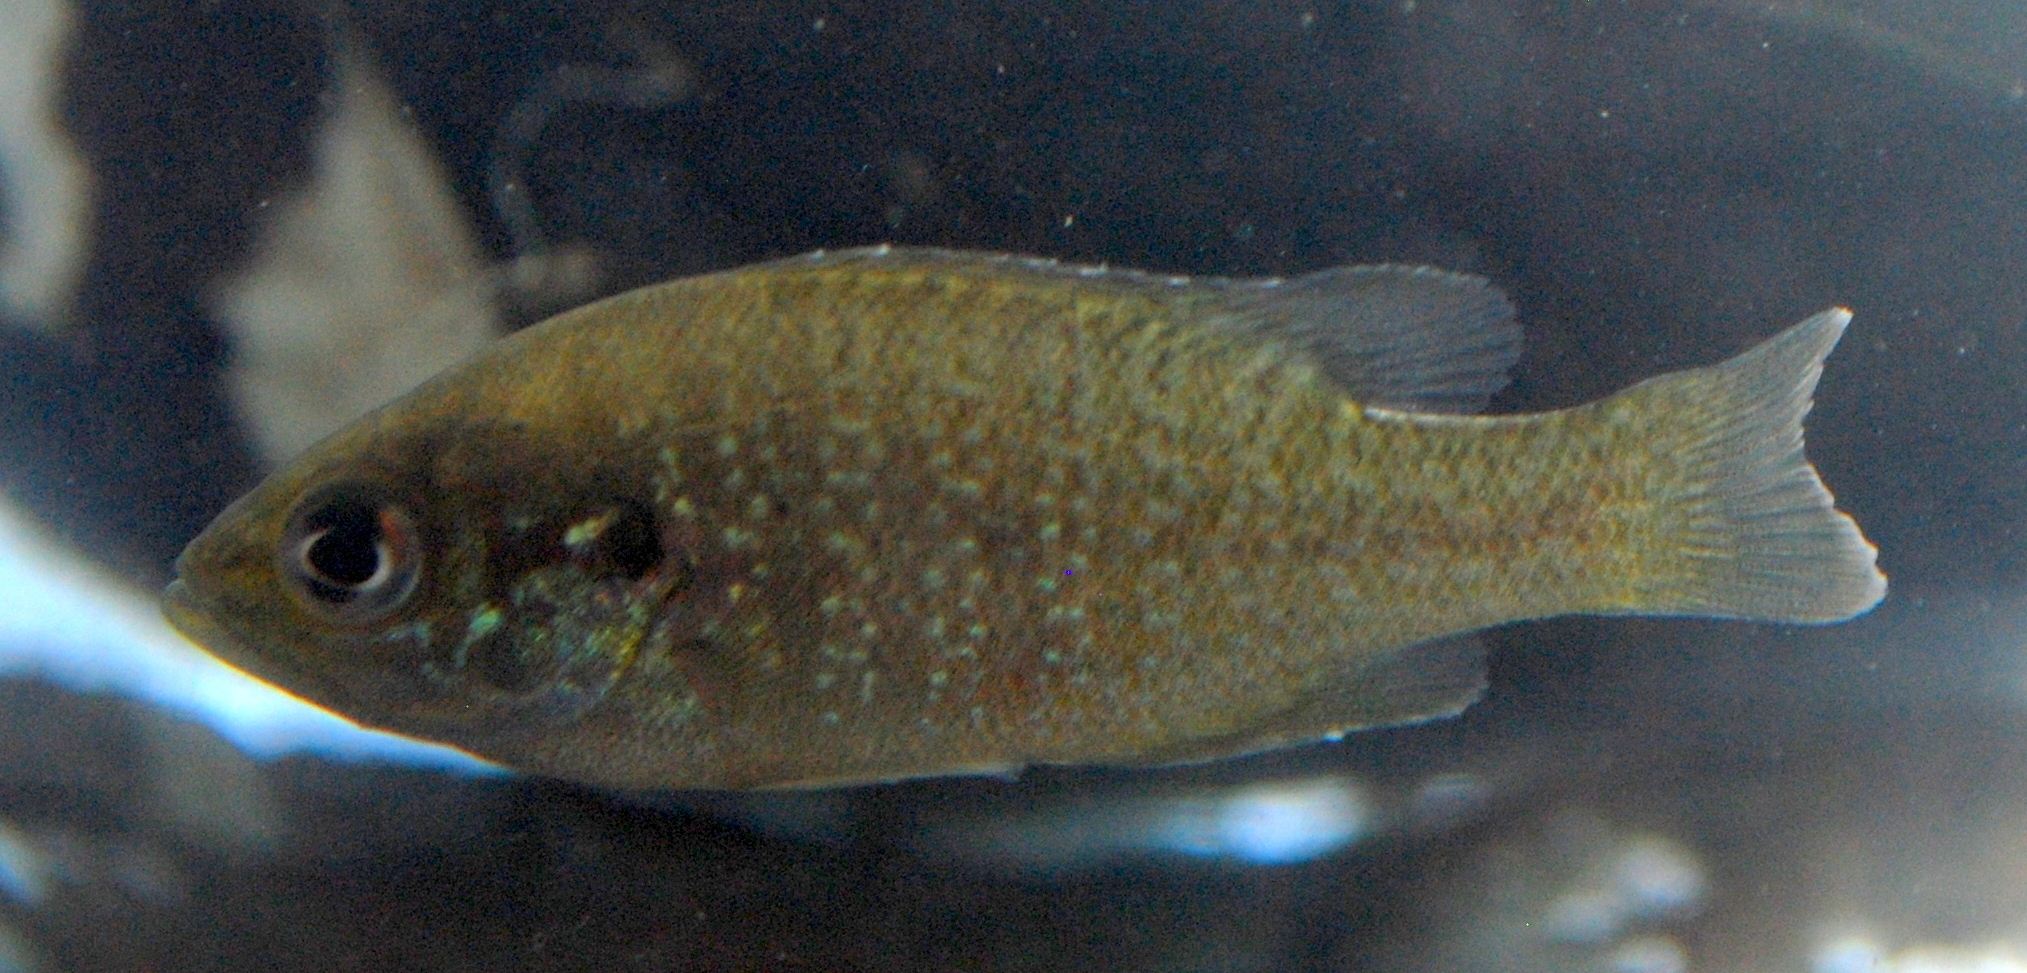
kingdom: Animalia
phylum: Chordata
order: Perciformes
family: Centrarchidae
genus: Lepomis
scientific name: Lepomis cyanellus
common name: Green sunfish
